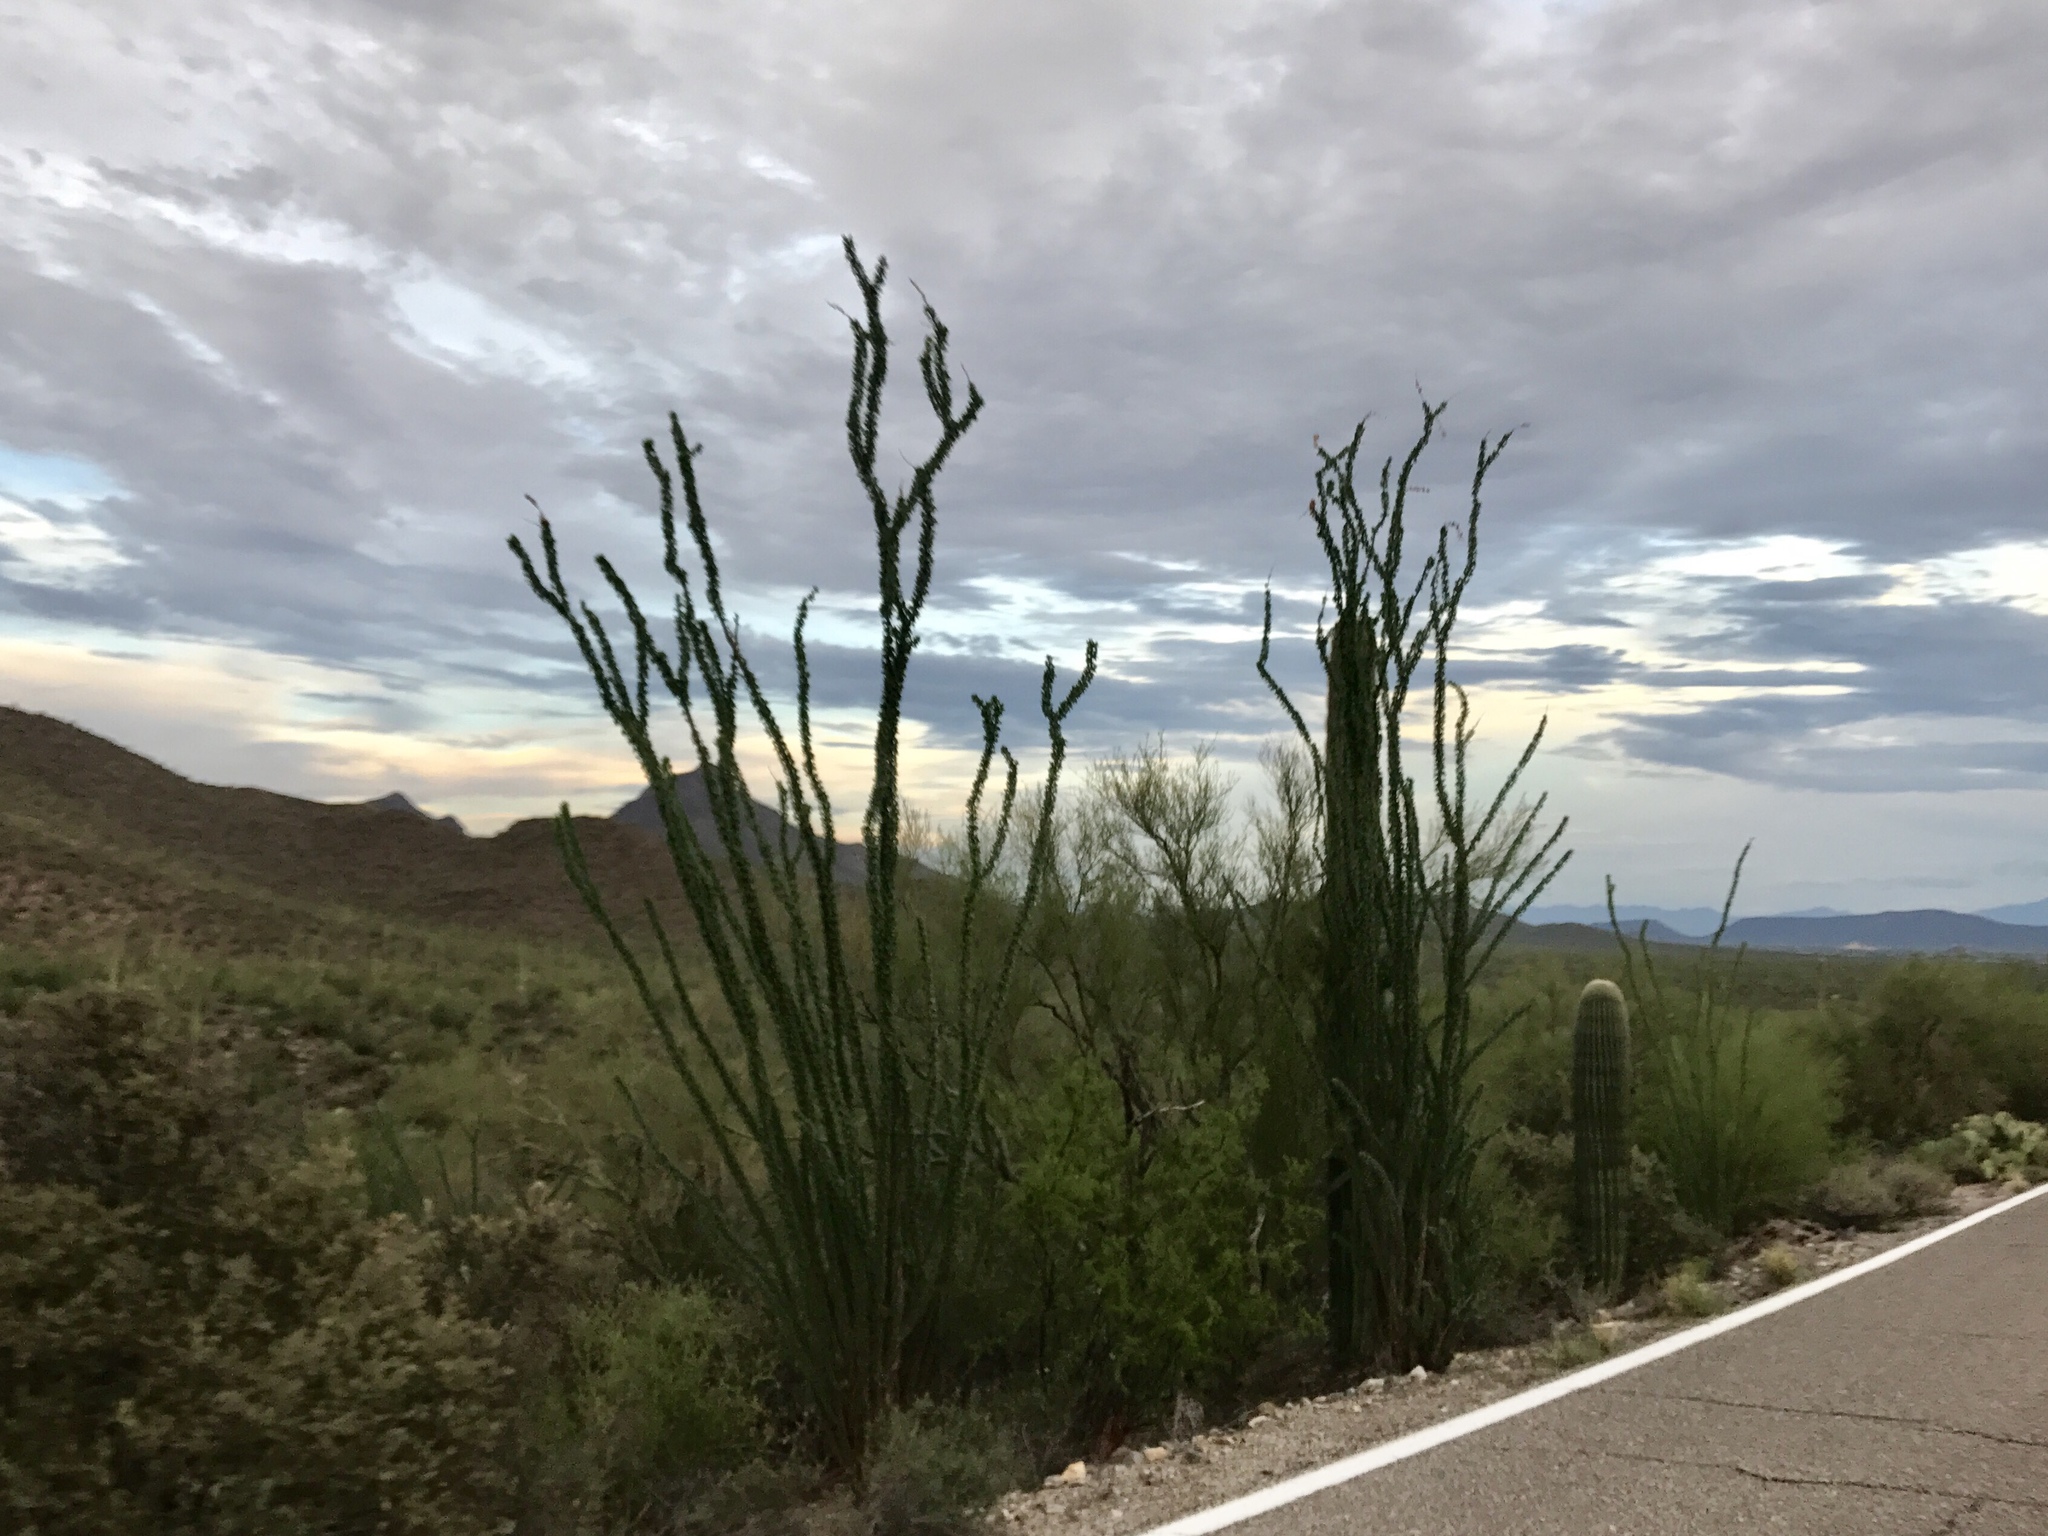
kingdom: Plantae
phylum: Tracheophyta
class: Magnoliopsida
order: Ericales
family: Fouquieriaceae
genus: Fouquieria
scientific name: Fouquieria splendens
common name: Vine-cactus
